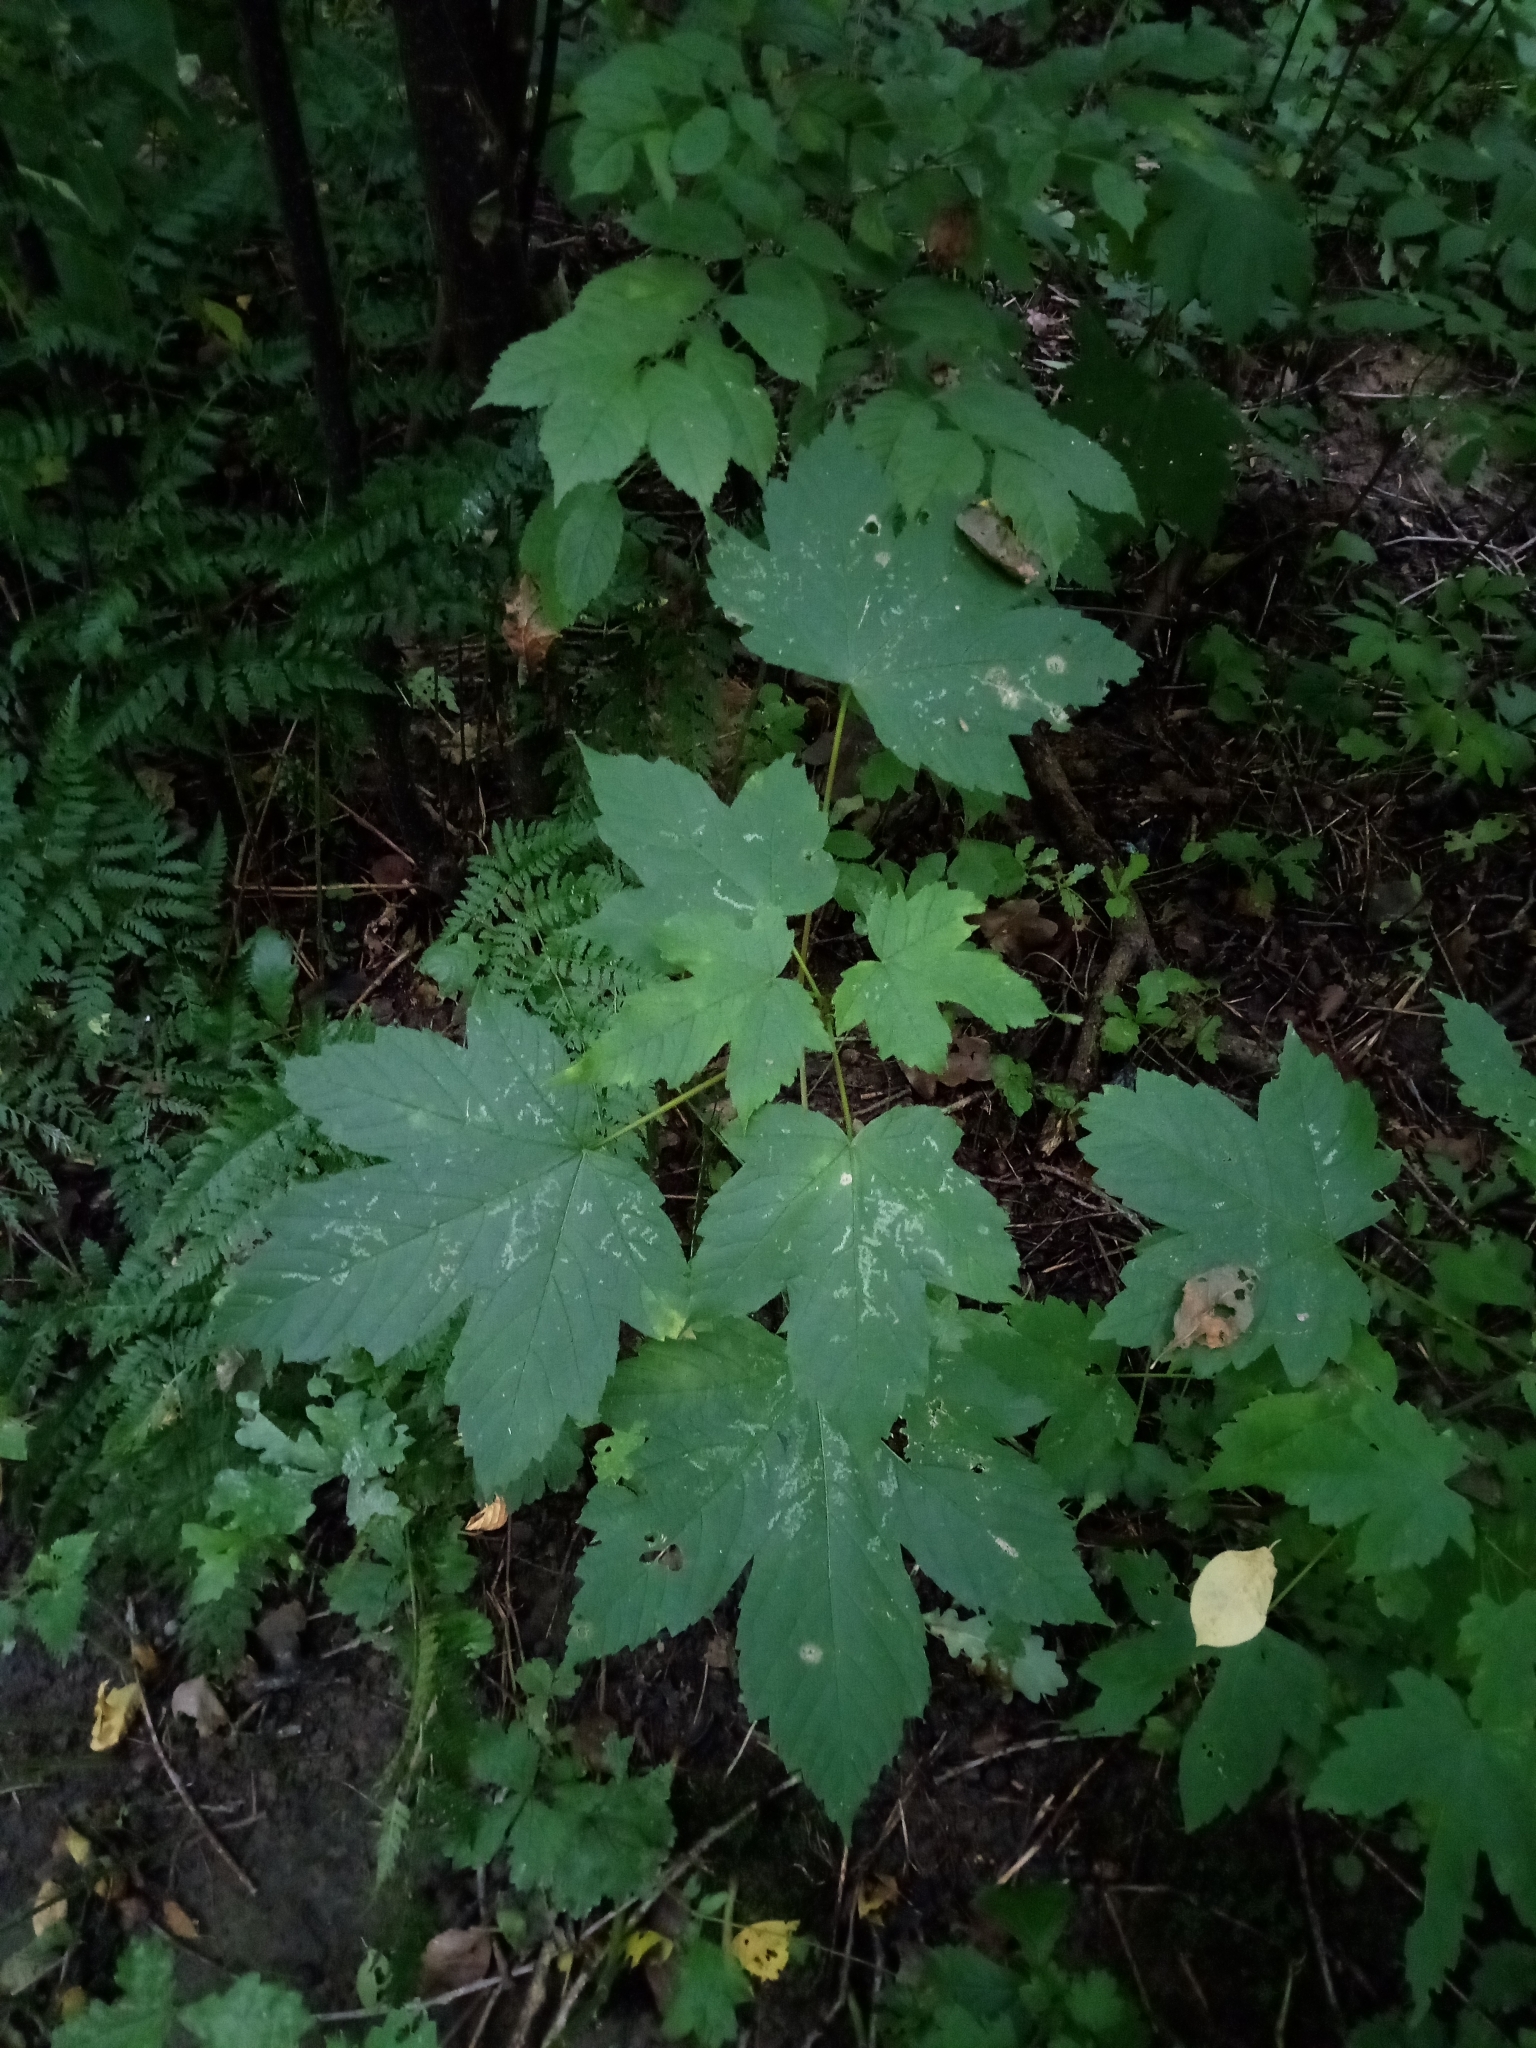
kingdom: Plantae
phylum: Tracheophyta
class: Magnoliopsida
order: Sapindales
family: Sapindaceae
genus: Acer
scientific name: Acer pseudoplatanus
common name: Sycamore
